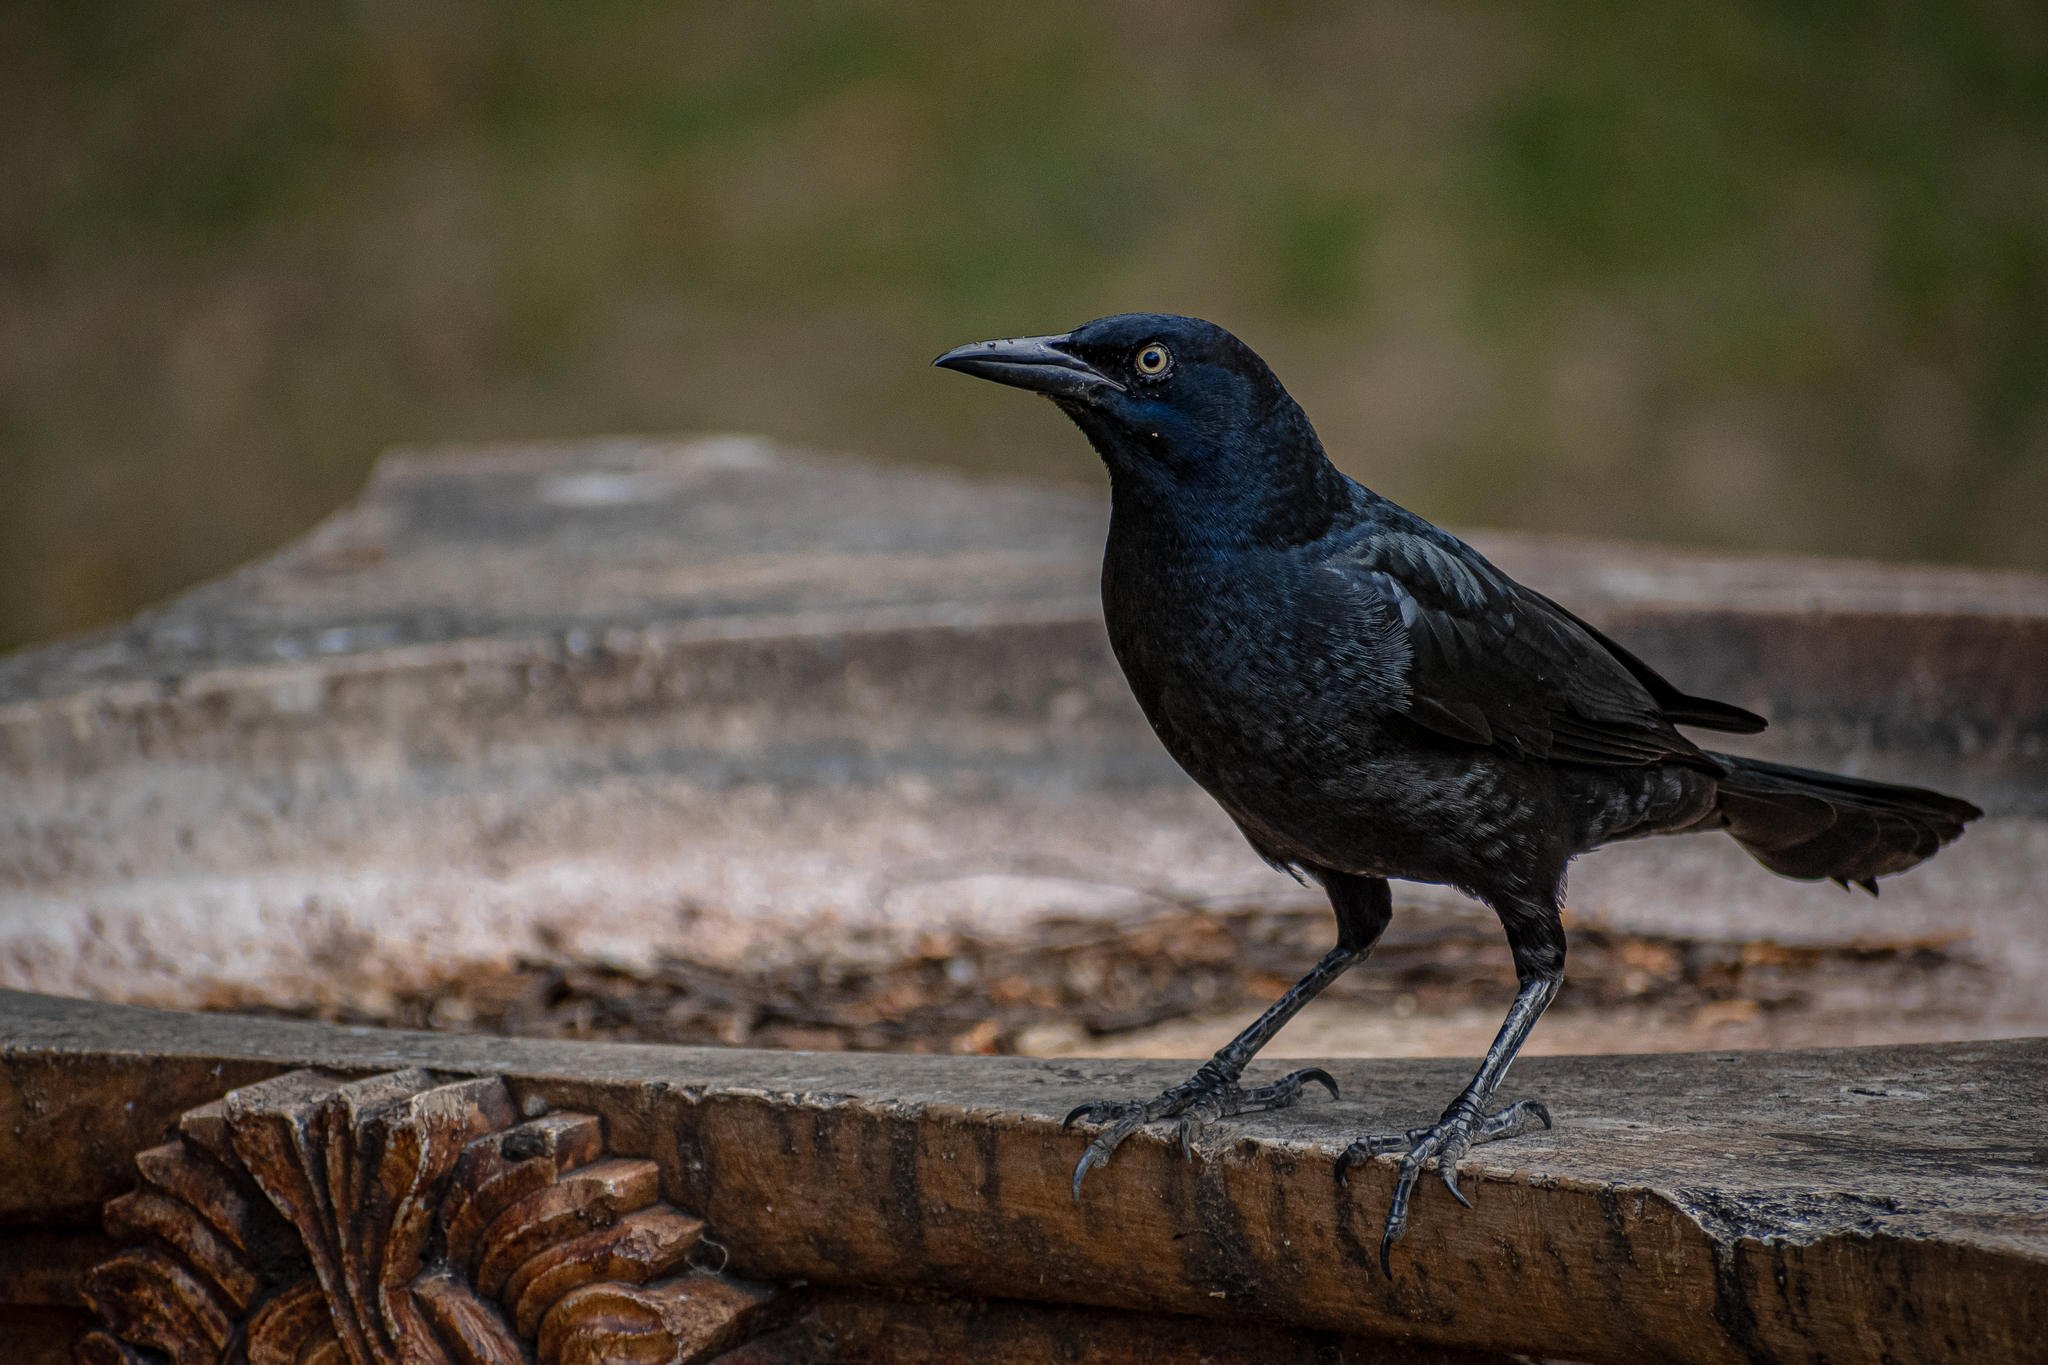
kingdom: Animalia
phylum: Chordata
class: Aves
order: Passeriformes
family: Icteridae
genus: Quiscalus
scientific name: Quiscalus mexicanus
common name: Great-tailed grackle
